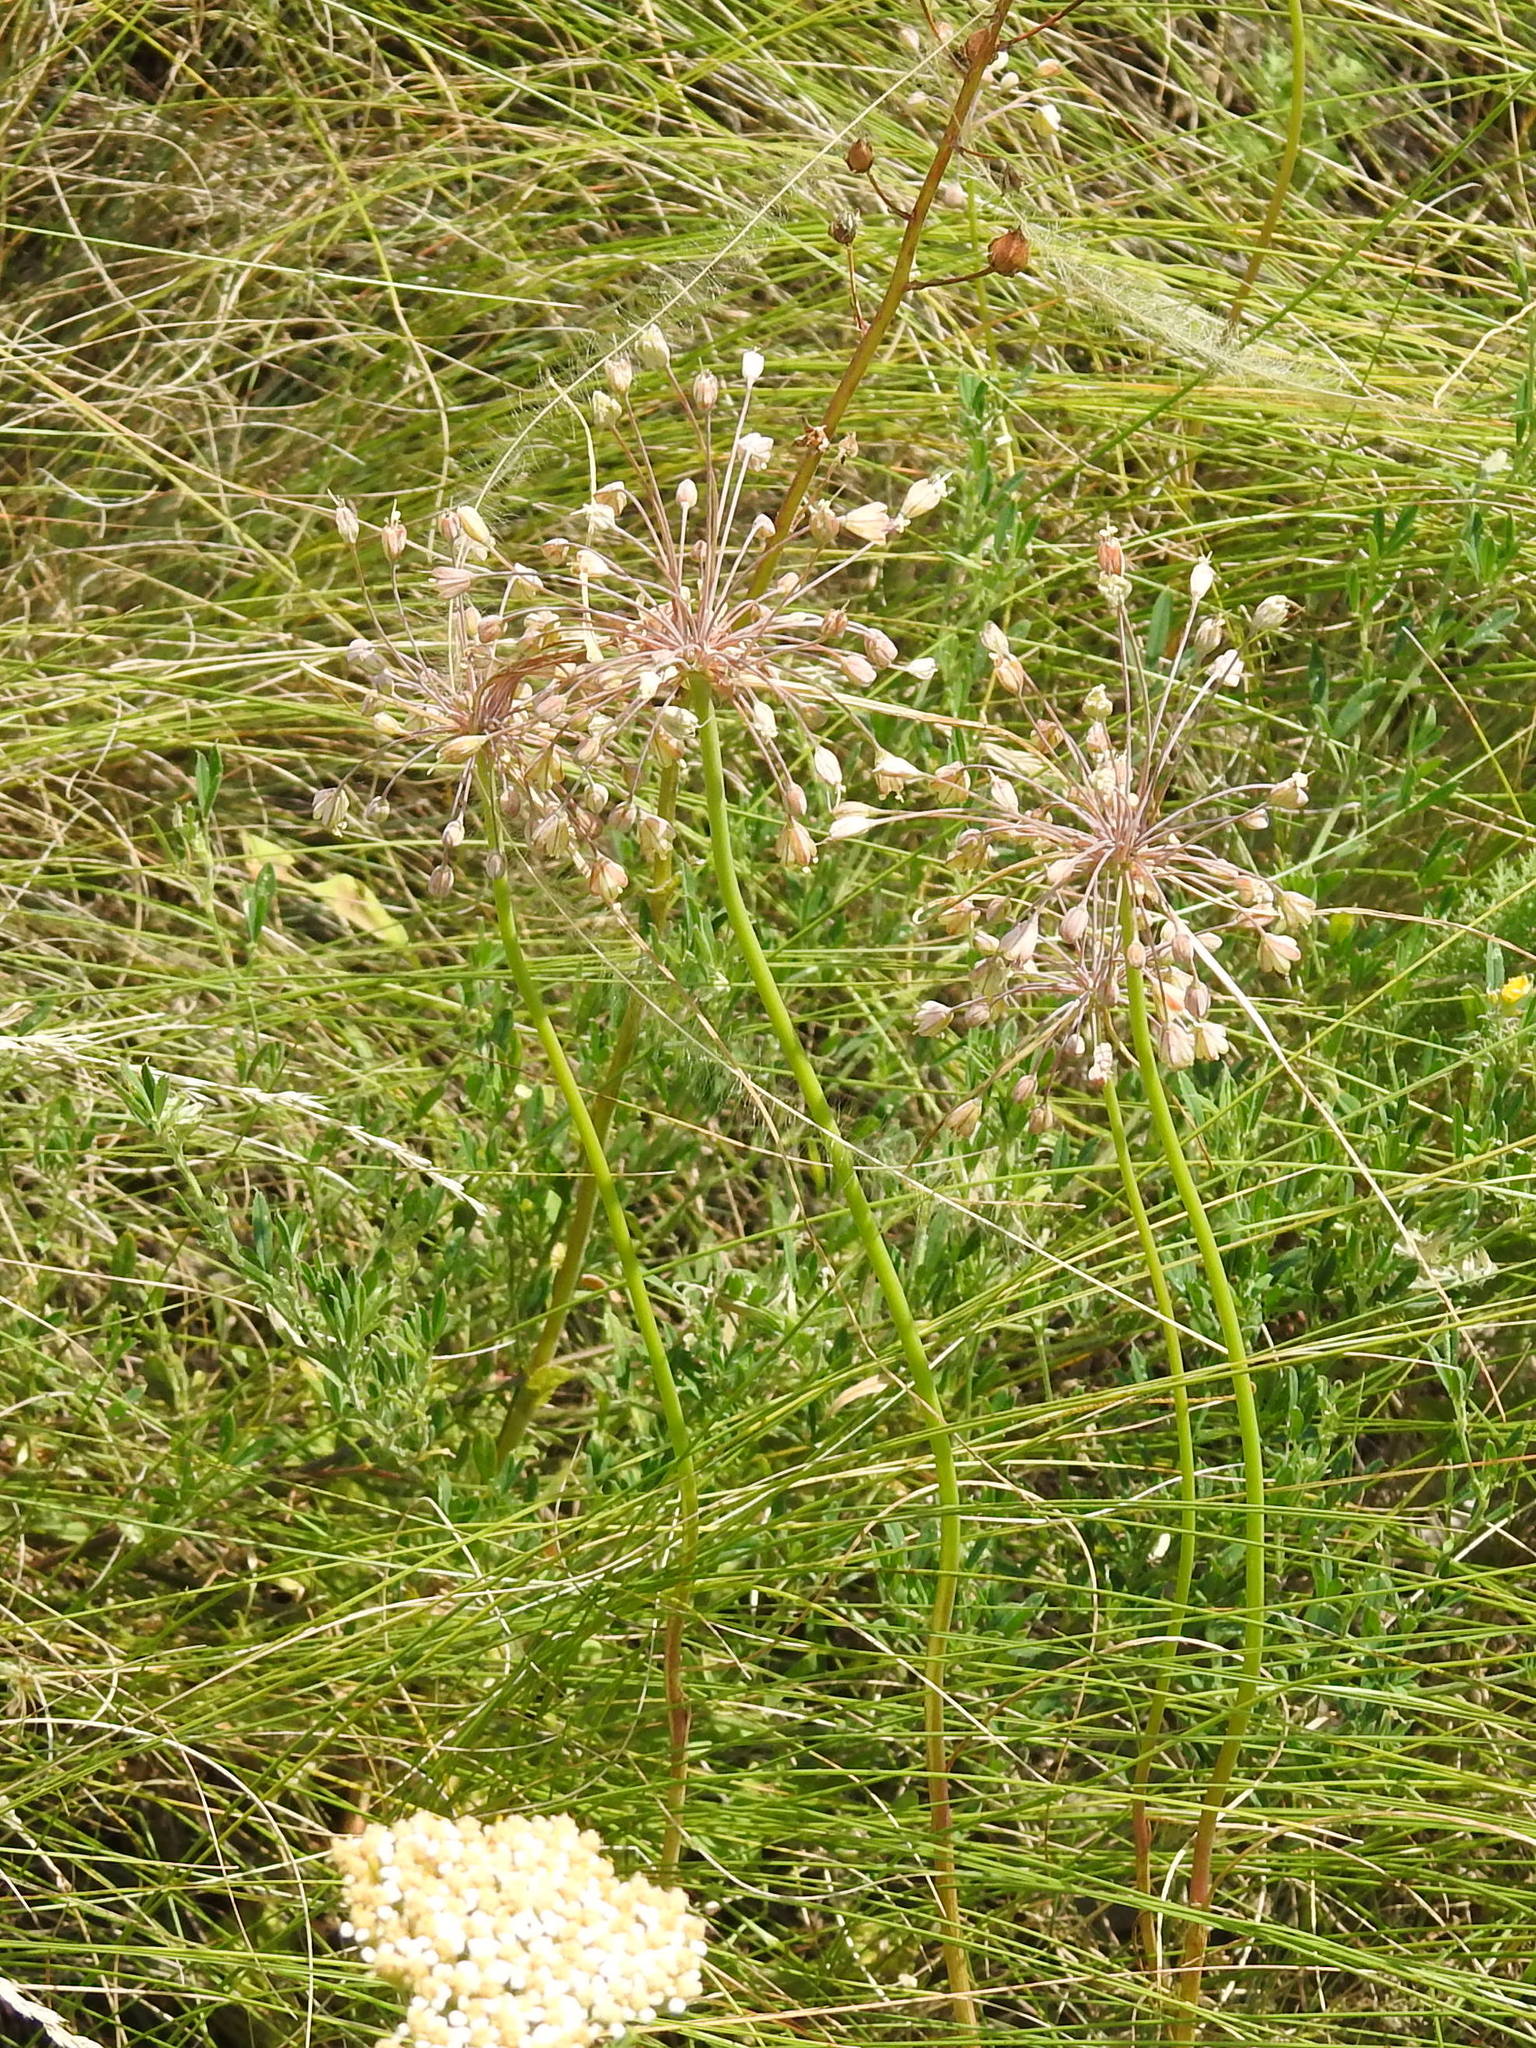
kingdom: Plantae
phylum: Tracheophyta
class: Liliopsida
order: Asparagales
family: Amaryllidaceae
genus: Allium
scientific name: Allium flavum
